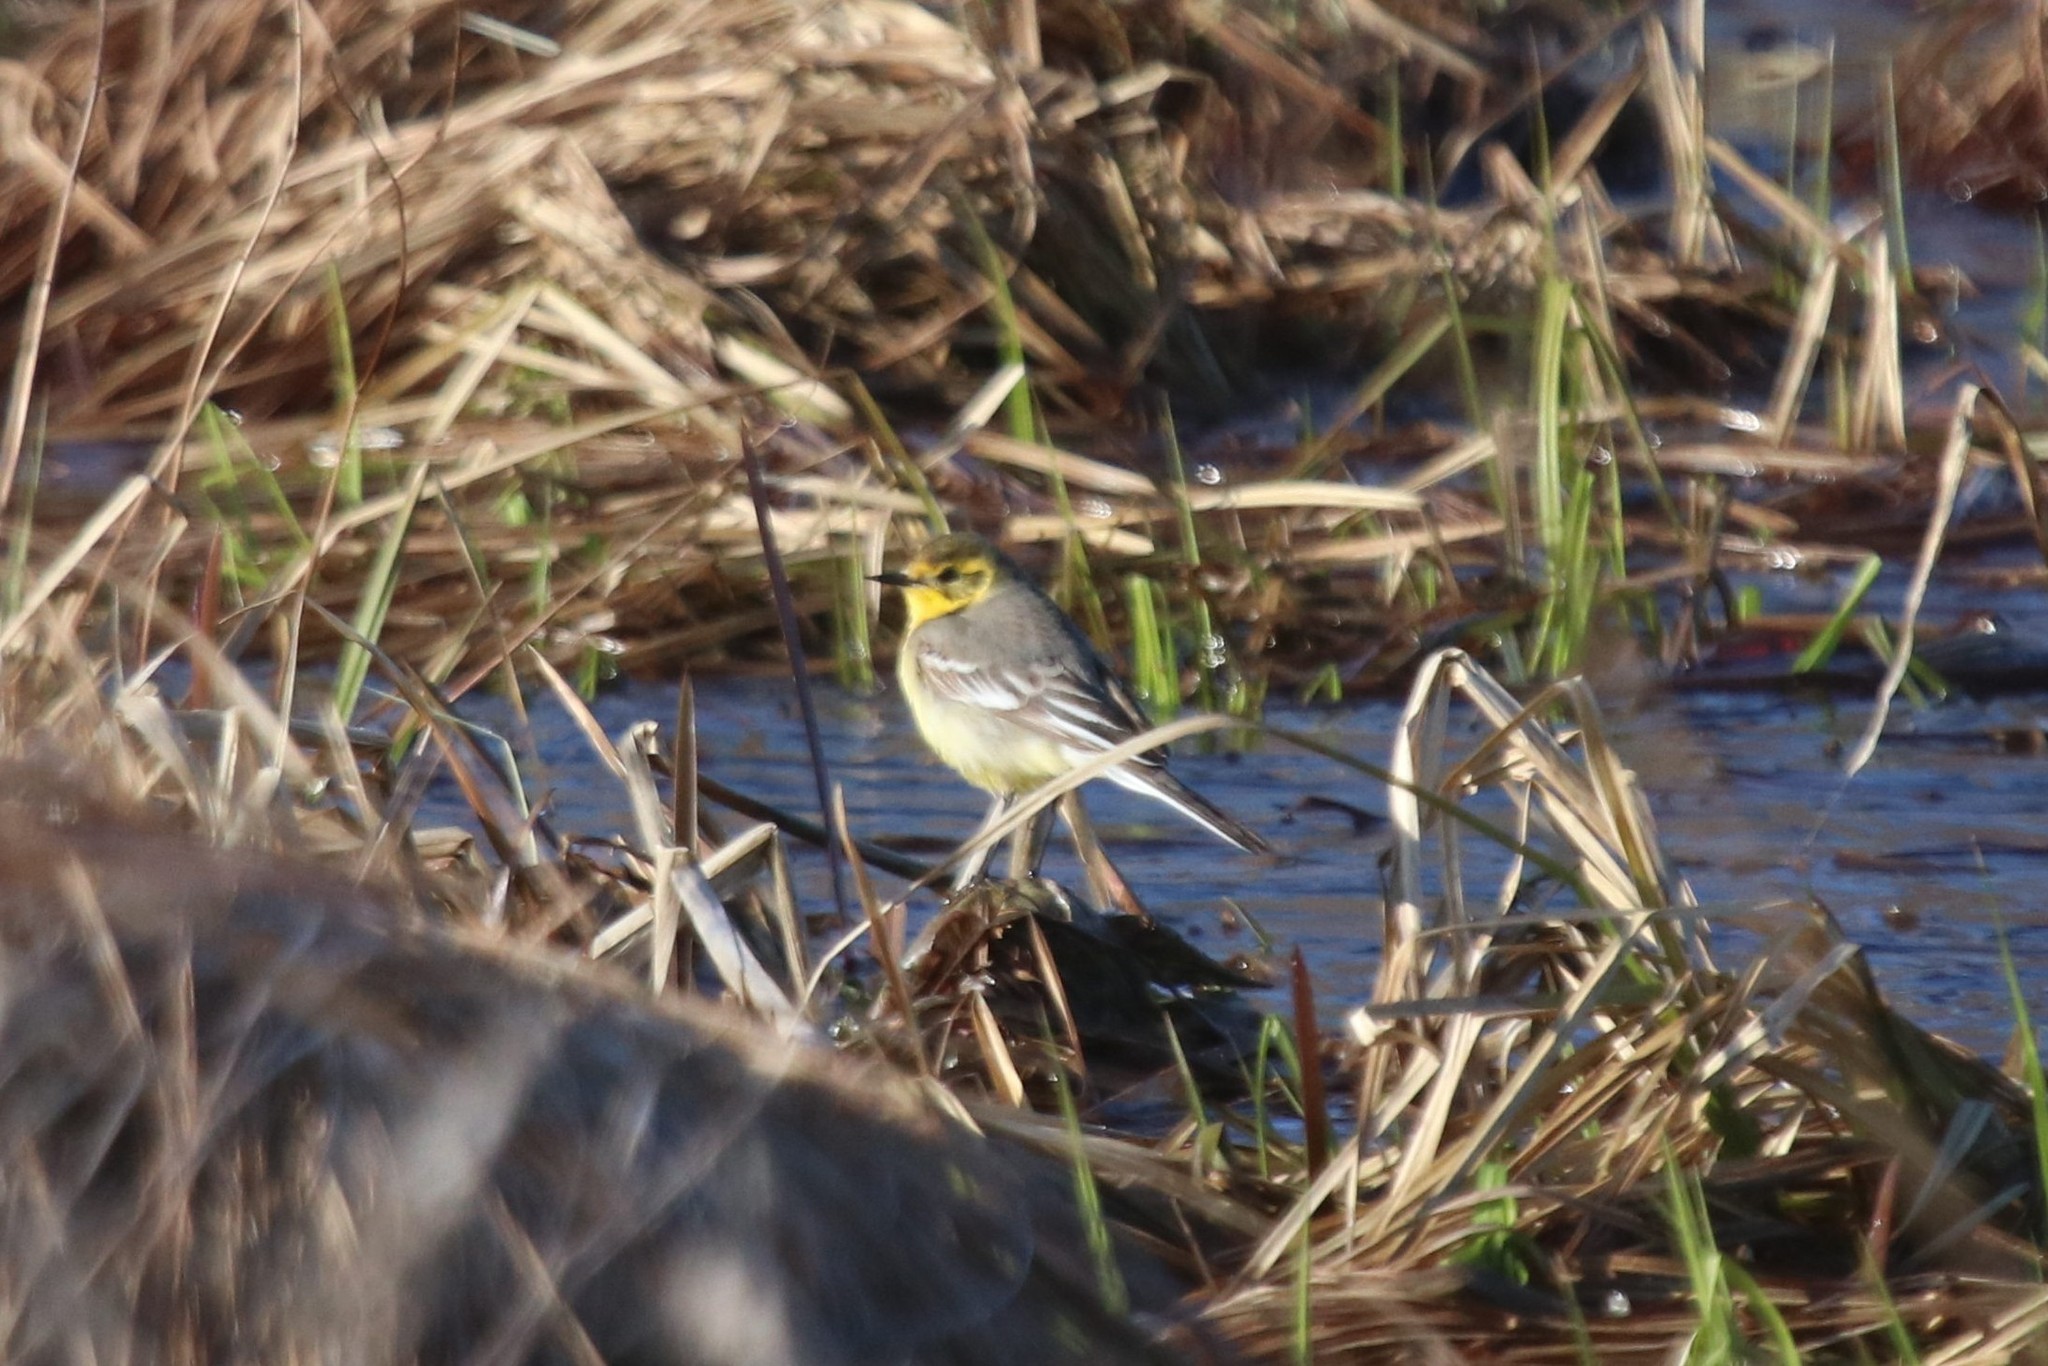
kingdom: Animalia
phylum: Chordata
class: Aves
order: Passeriformes
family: Motacillidae
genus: Motacilla
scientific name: Motacilla citreola
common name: Citrine wagtail
